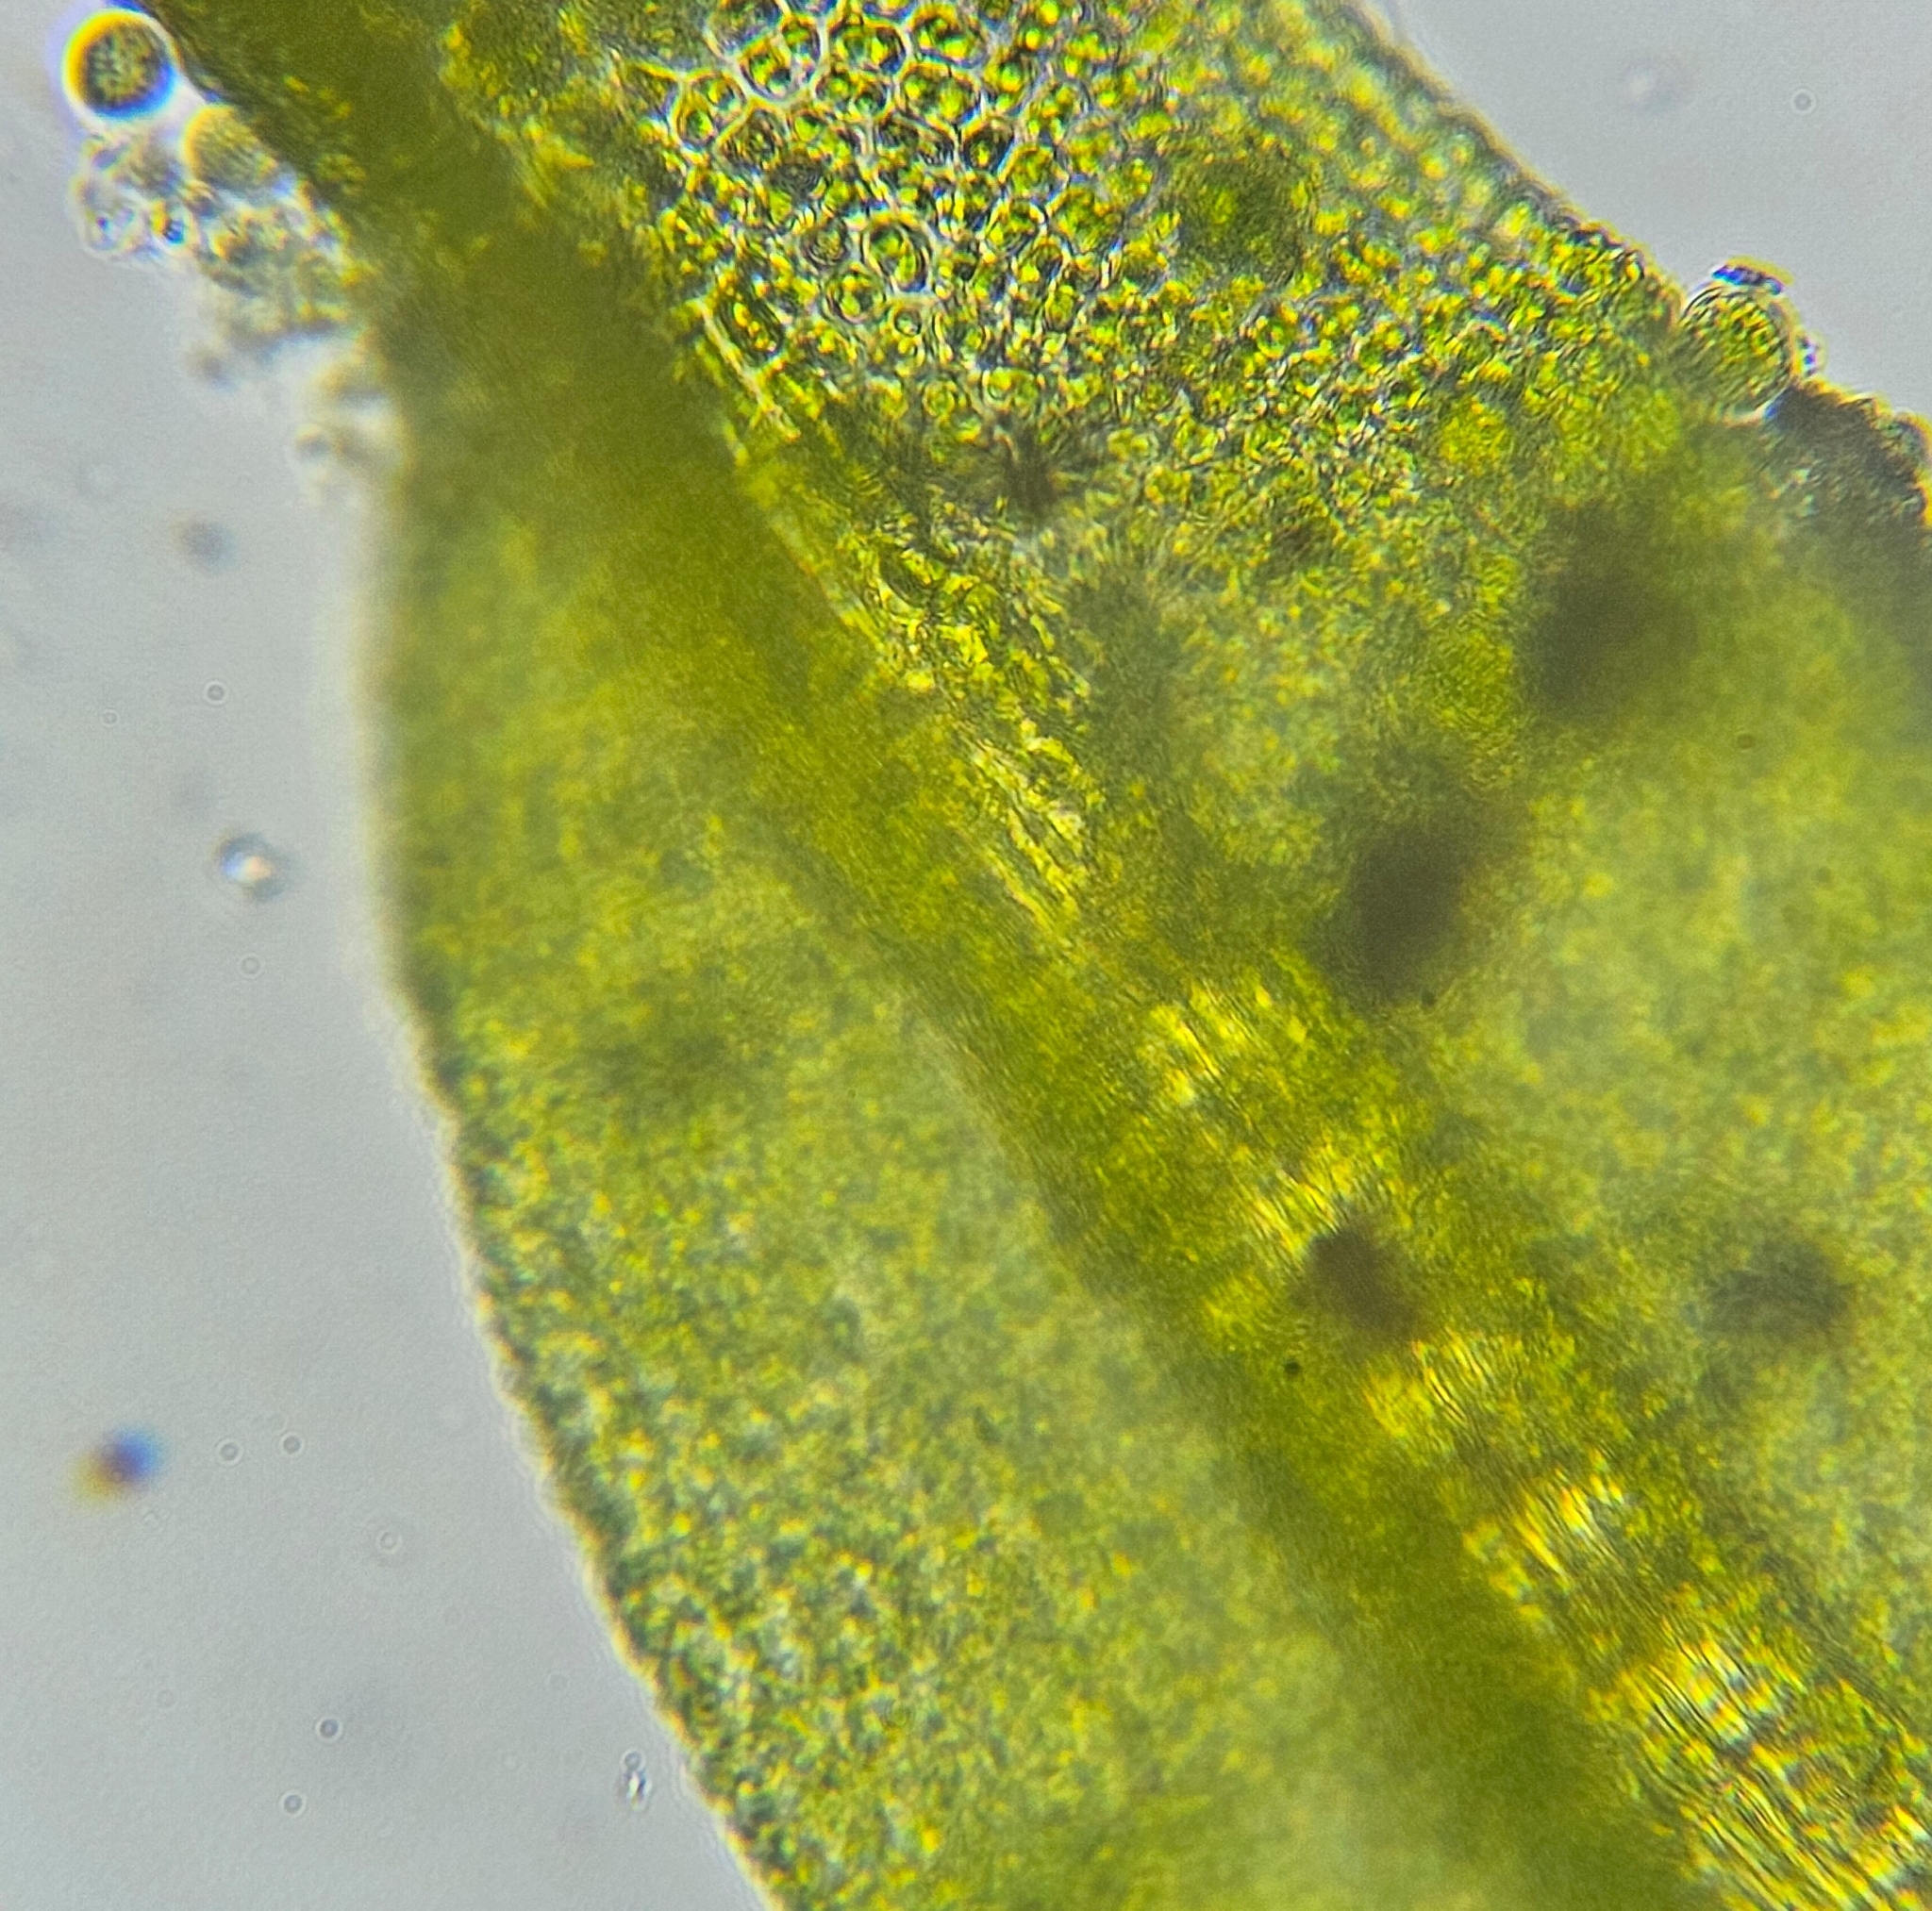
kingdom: Plantae
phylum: Bryophyta
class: Bryopsida
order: Pottiales
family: Pottiaceae
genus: Streblotrichum
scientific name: Streblotrichum commutatum
